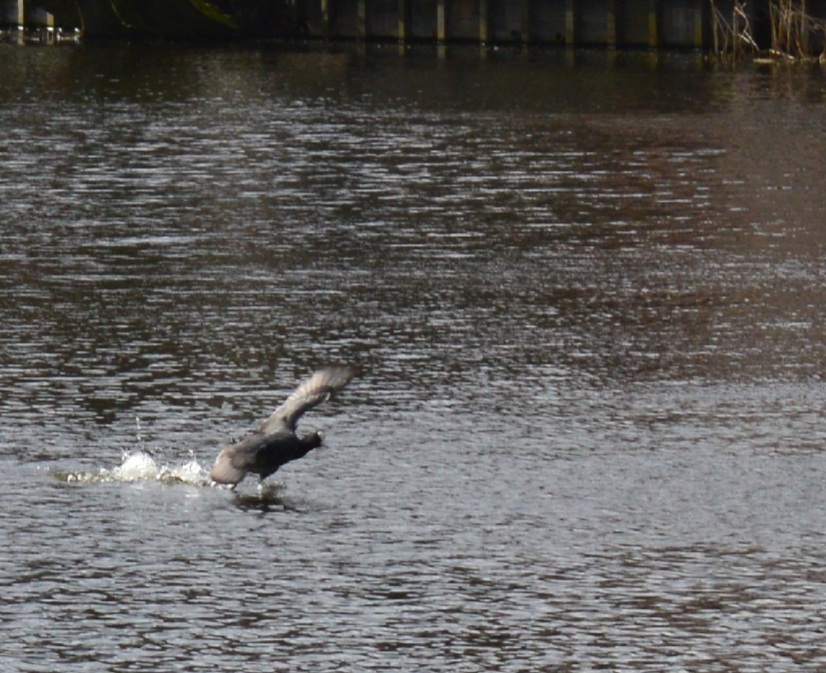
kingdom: Animalia
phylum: Chordata
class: Aves
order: Gruiformes
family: Rallidae
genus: Fulica
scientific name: Fulica atra
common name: Eurasian coot
